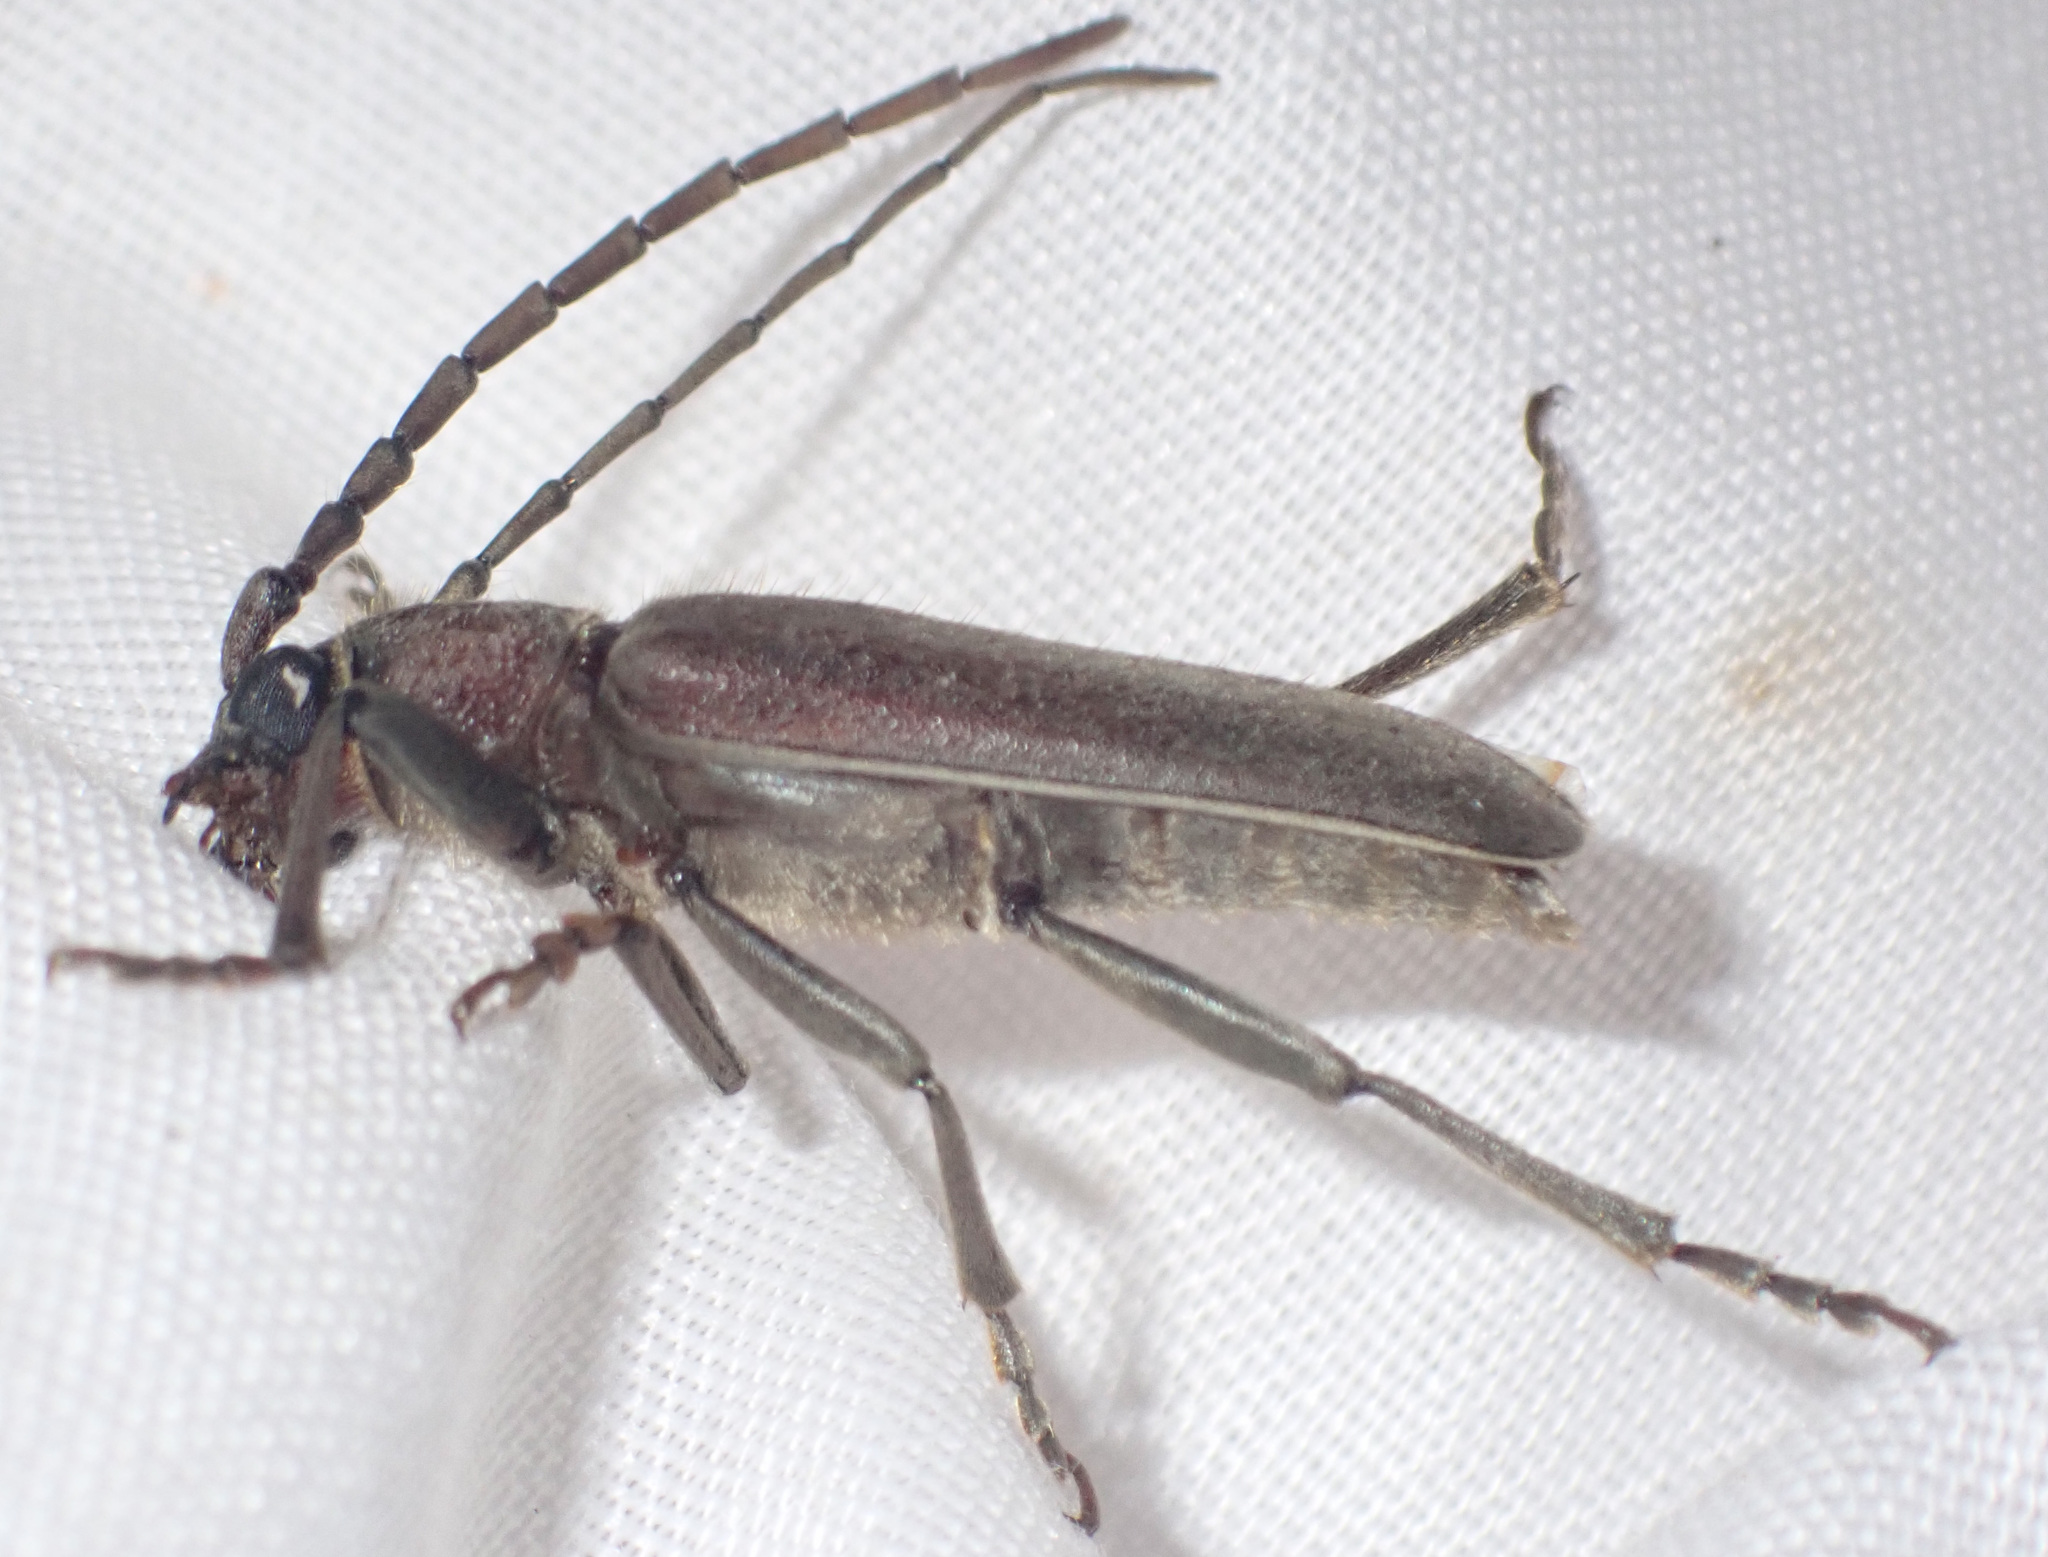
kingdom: Animalia
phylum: Arthropoda
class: Insecta
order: Coleoptera
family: Cerambycidae
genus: Africophanes
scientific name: Africophanes amicus
